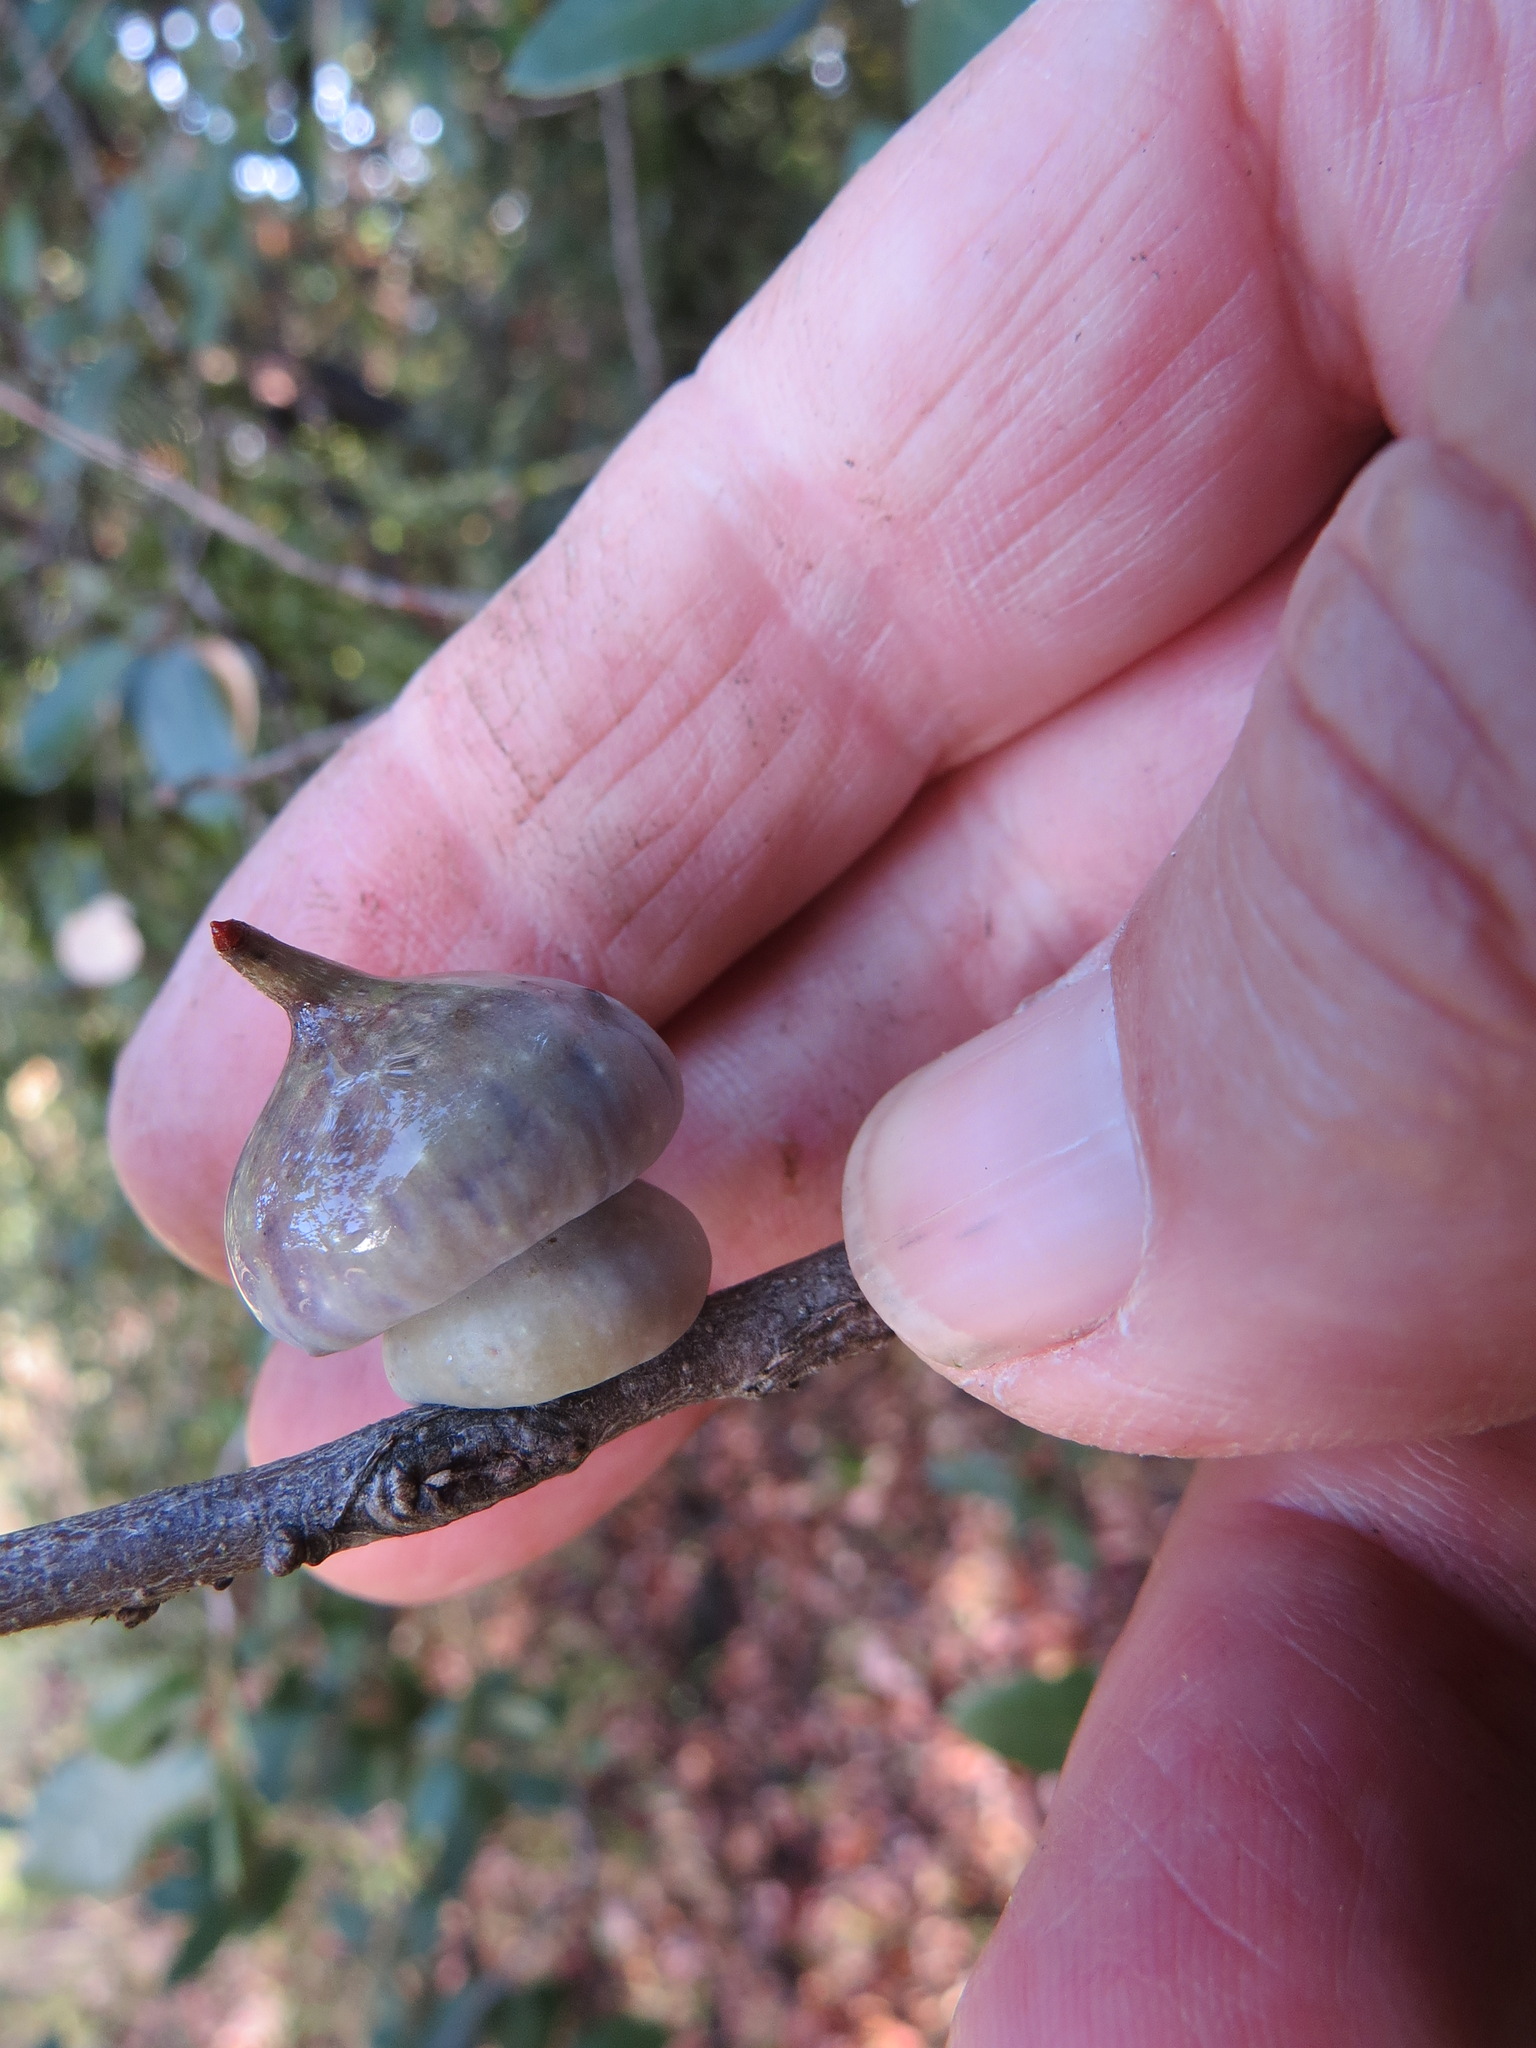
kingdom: Animalia
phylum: Arthropoda
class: Insecta
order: Hymenoptera
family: Cynipidae
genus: Heteroecus
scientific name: Heteroecus
